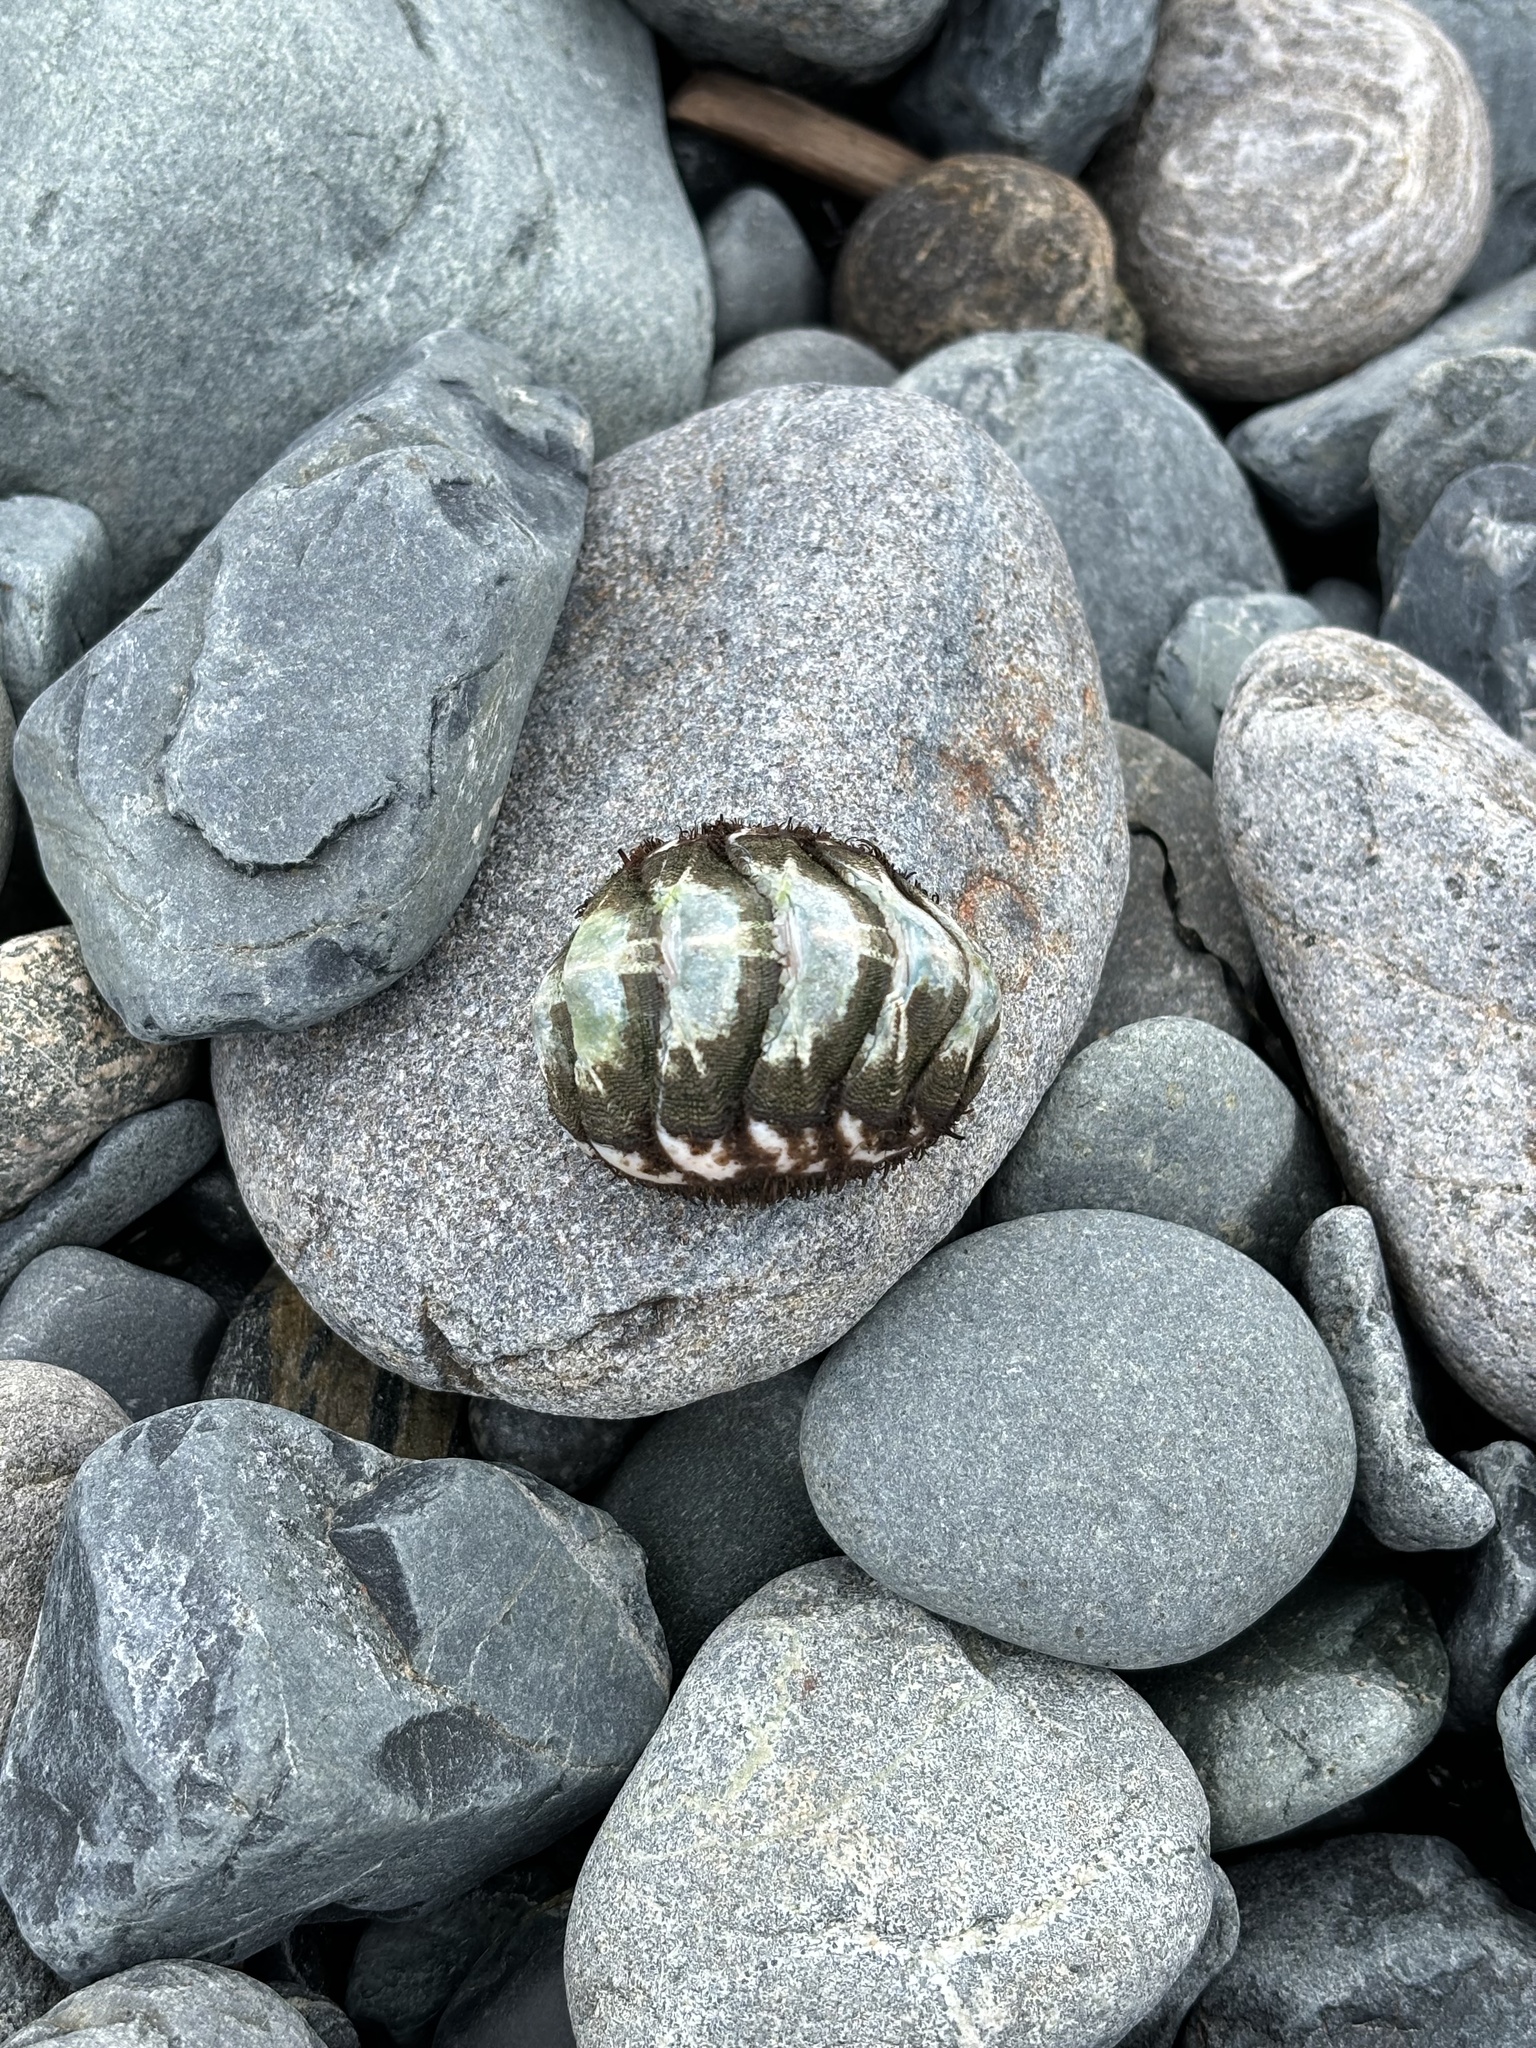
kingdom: Animalia
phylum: Mollusca
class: Polyplacophora
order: Chitonida
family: Mopaliidae
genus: Mopalia
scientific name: Mopalia muscosa
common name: Mossy chiton
